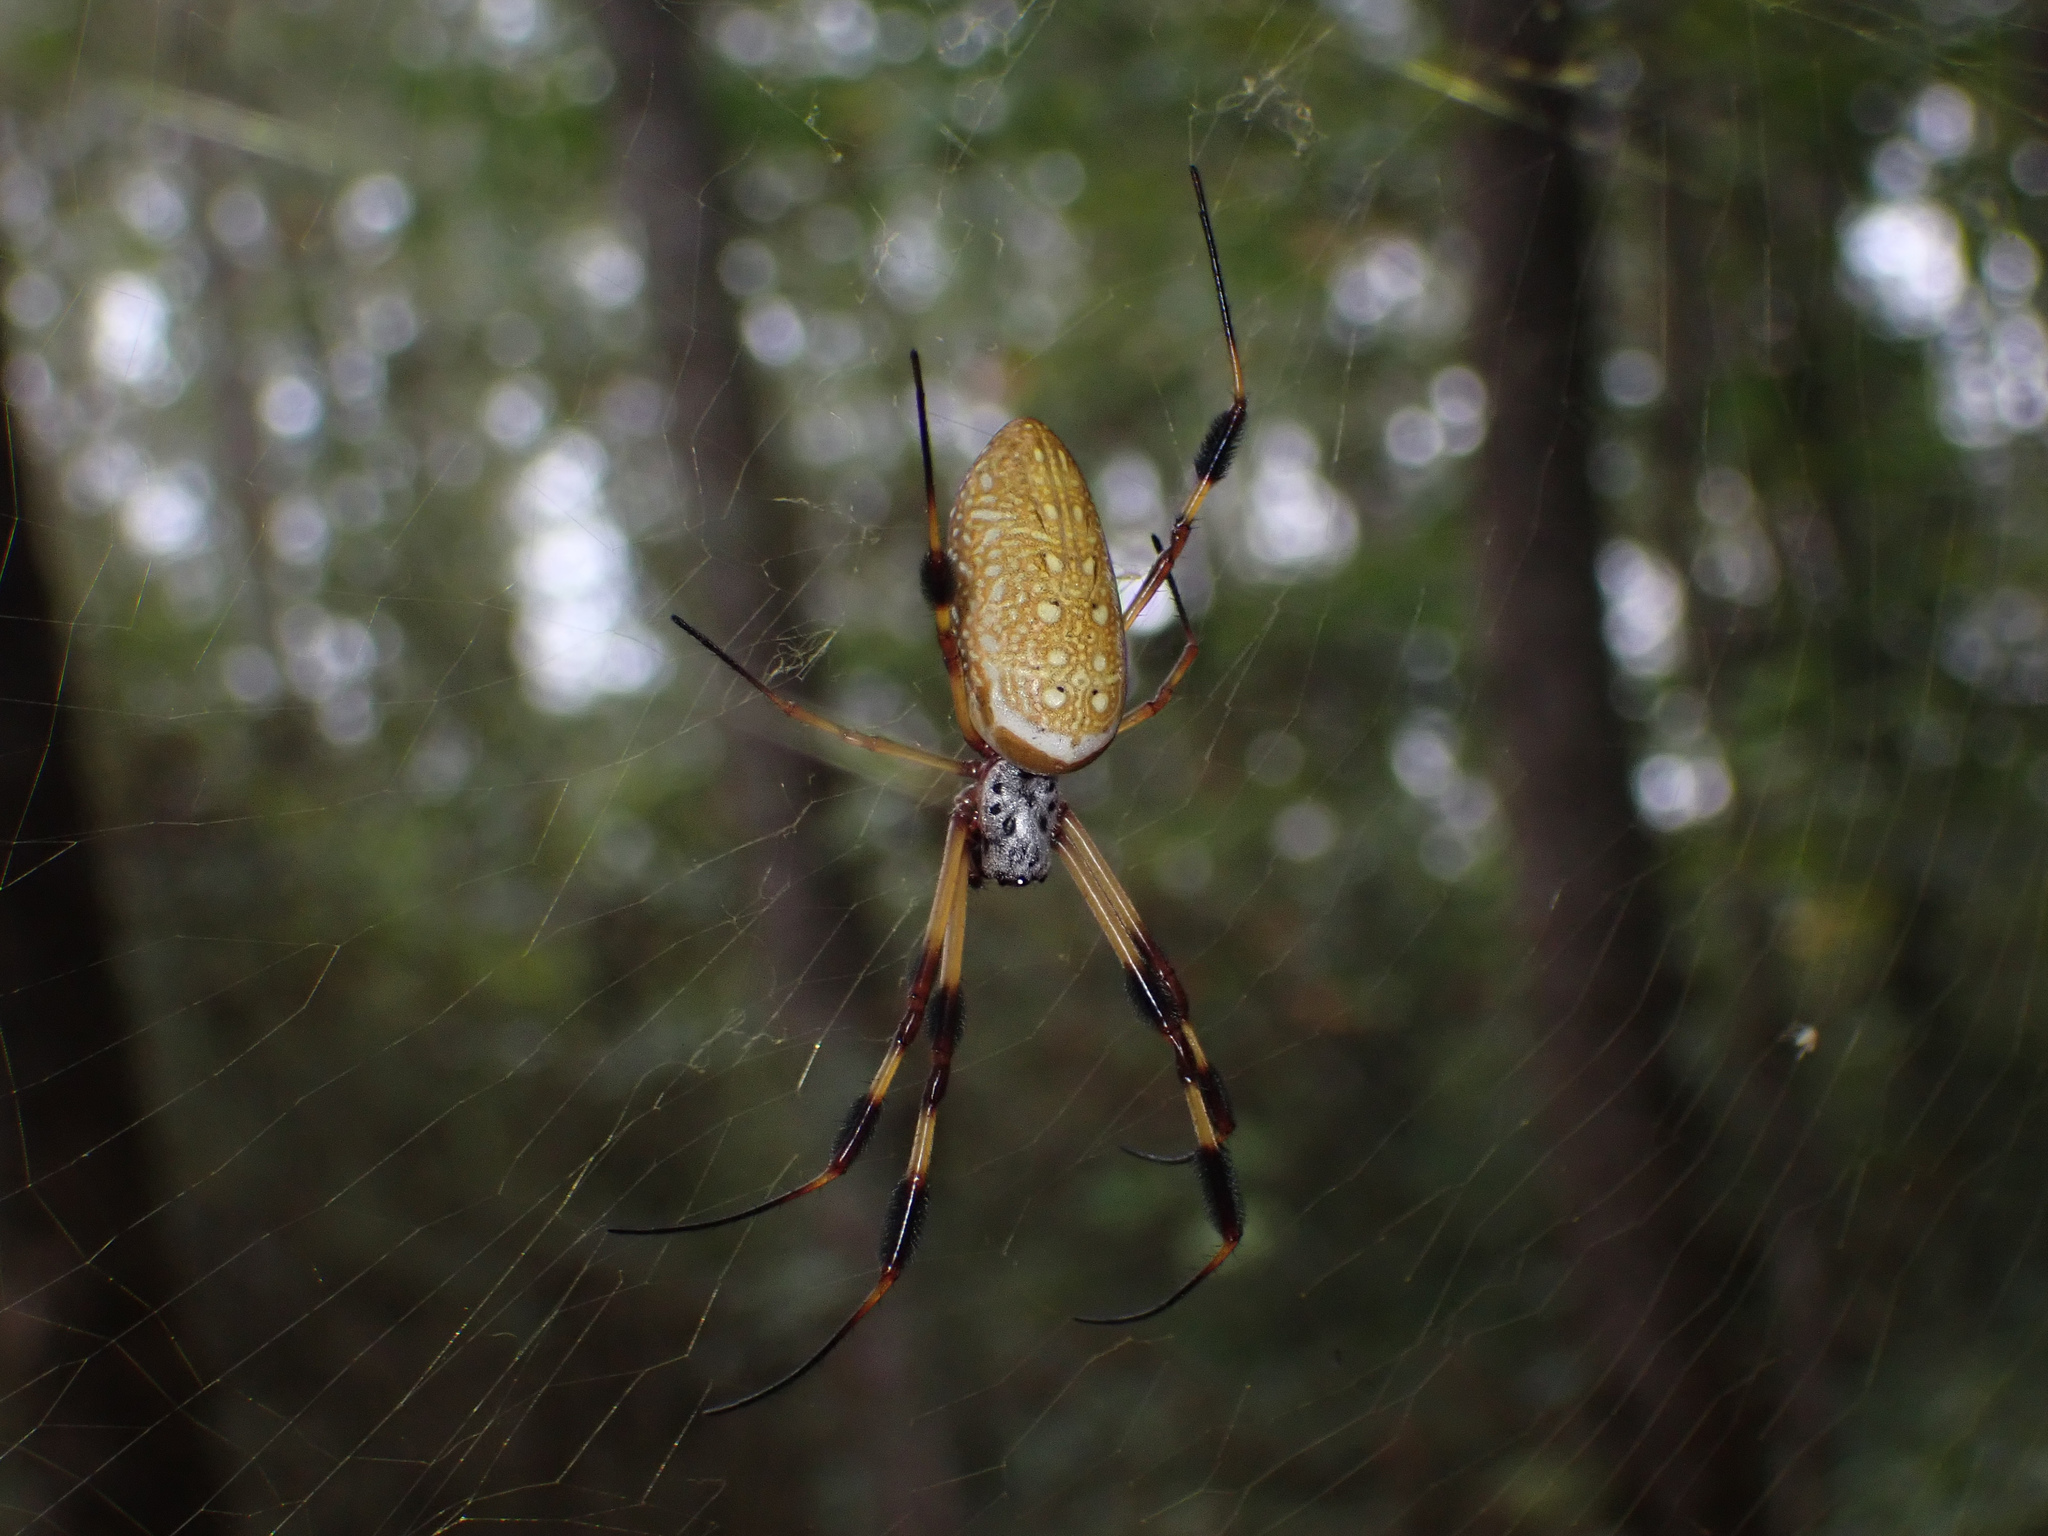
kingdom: Animalia
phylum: Arthropoda
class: Arachnida
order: Araneae
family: Araneidae
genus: Trichonephila
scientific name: Trichonephila clavipes
